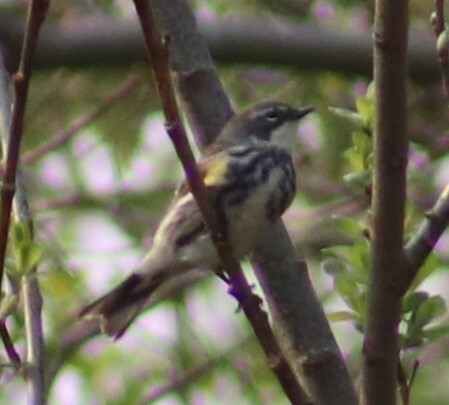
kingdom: Animalia
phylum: Chordata
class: Aves
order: Passeriformes
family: Parulidae
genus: Setophaga
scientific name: Setophaga coronata
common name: Myrtle warbler
